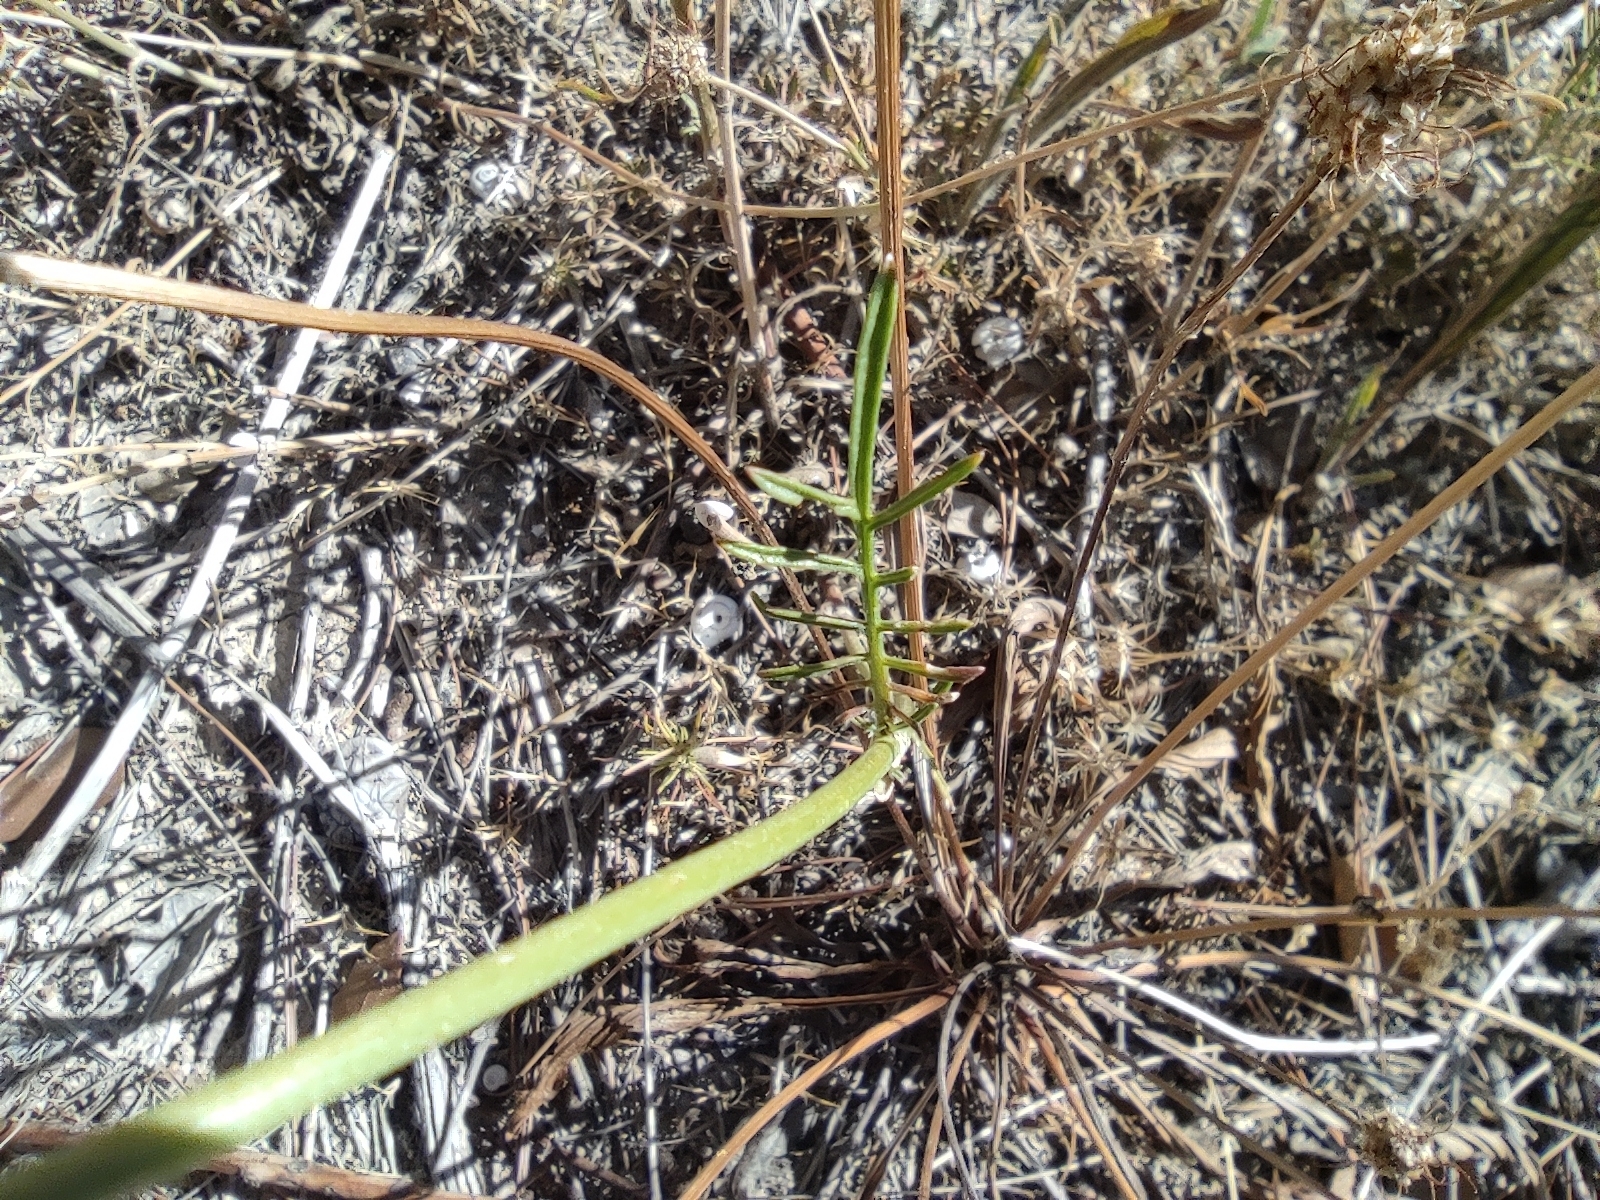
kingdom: Plantae
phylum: Tracheophyta
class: Magnoliopsida
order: Dipsacales
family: Caprifoliaceae
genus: Sixalix
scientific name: Sixalix atropurpurea
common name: Sweet scabious
